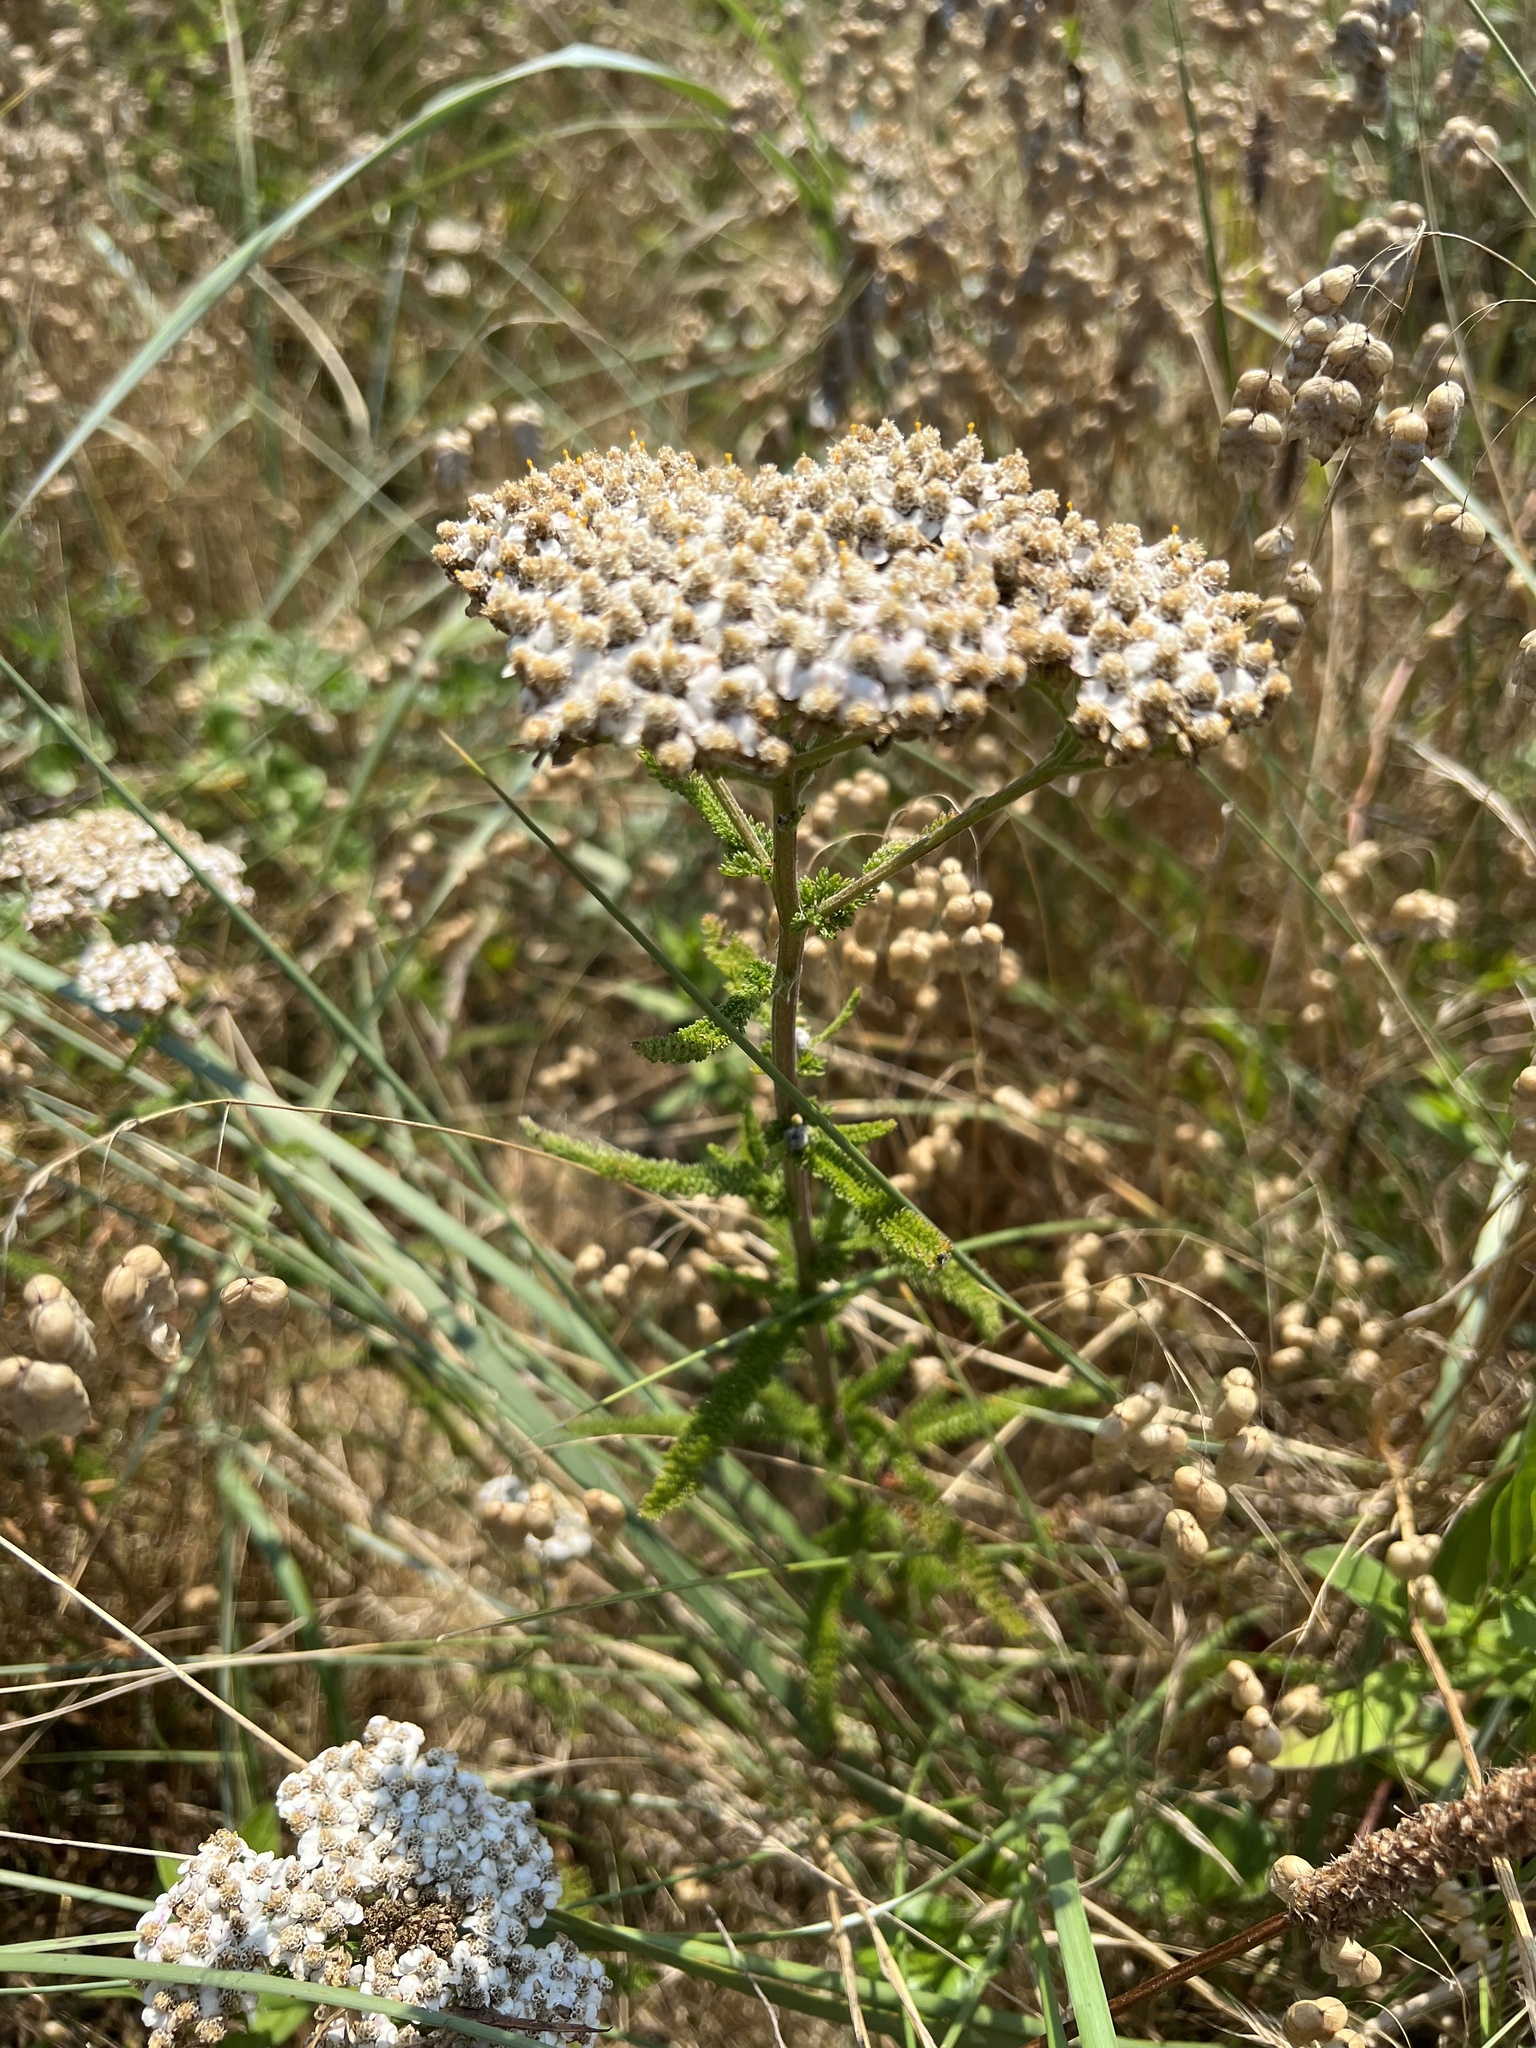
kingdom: Plantae
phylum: Tracheophyta
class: Magnoliopsida
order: Asterales
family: Asteraceae
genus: Achillea
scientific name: Achillea millefolium
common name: Yarrow
